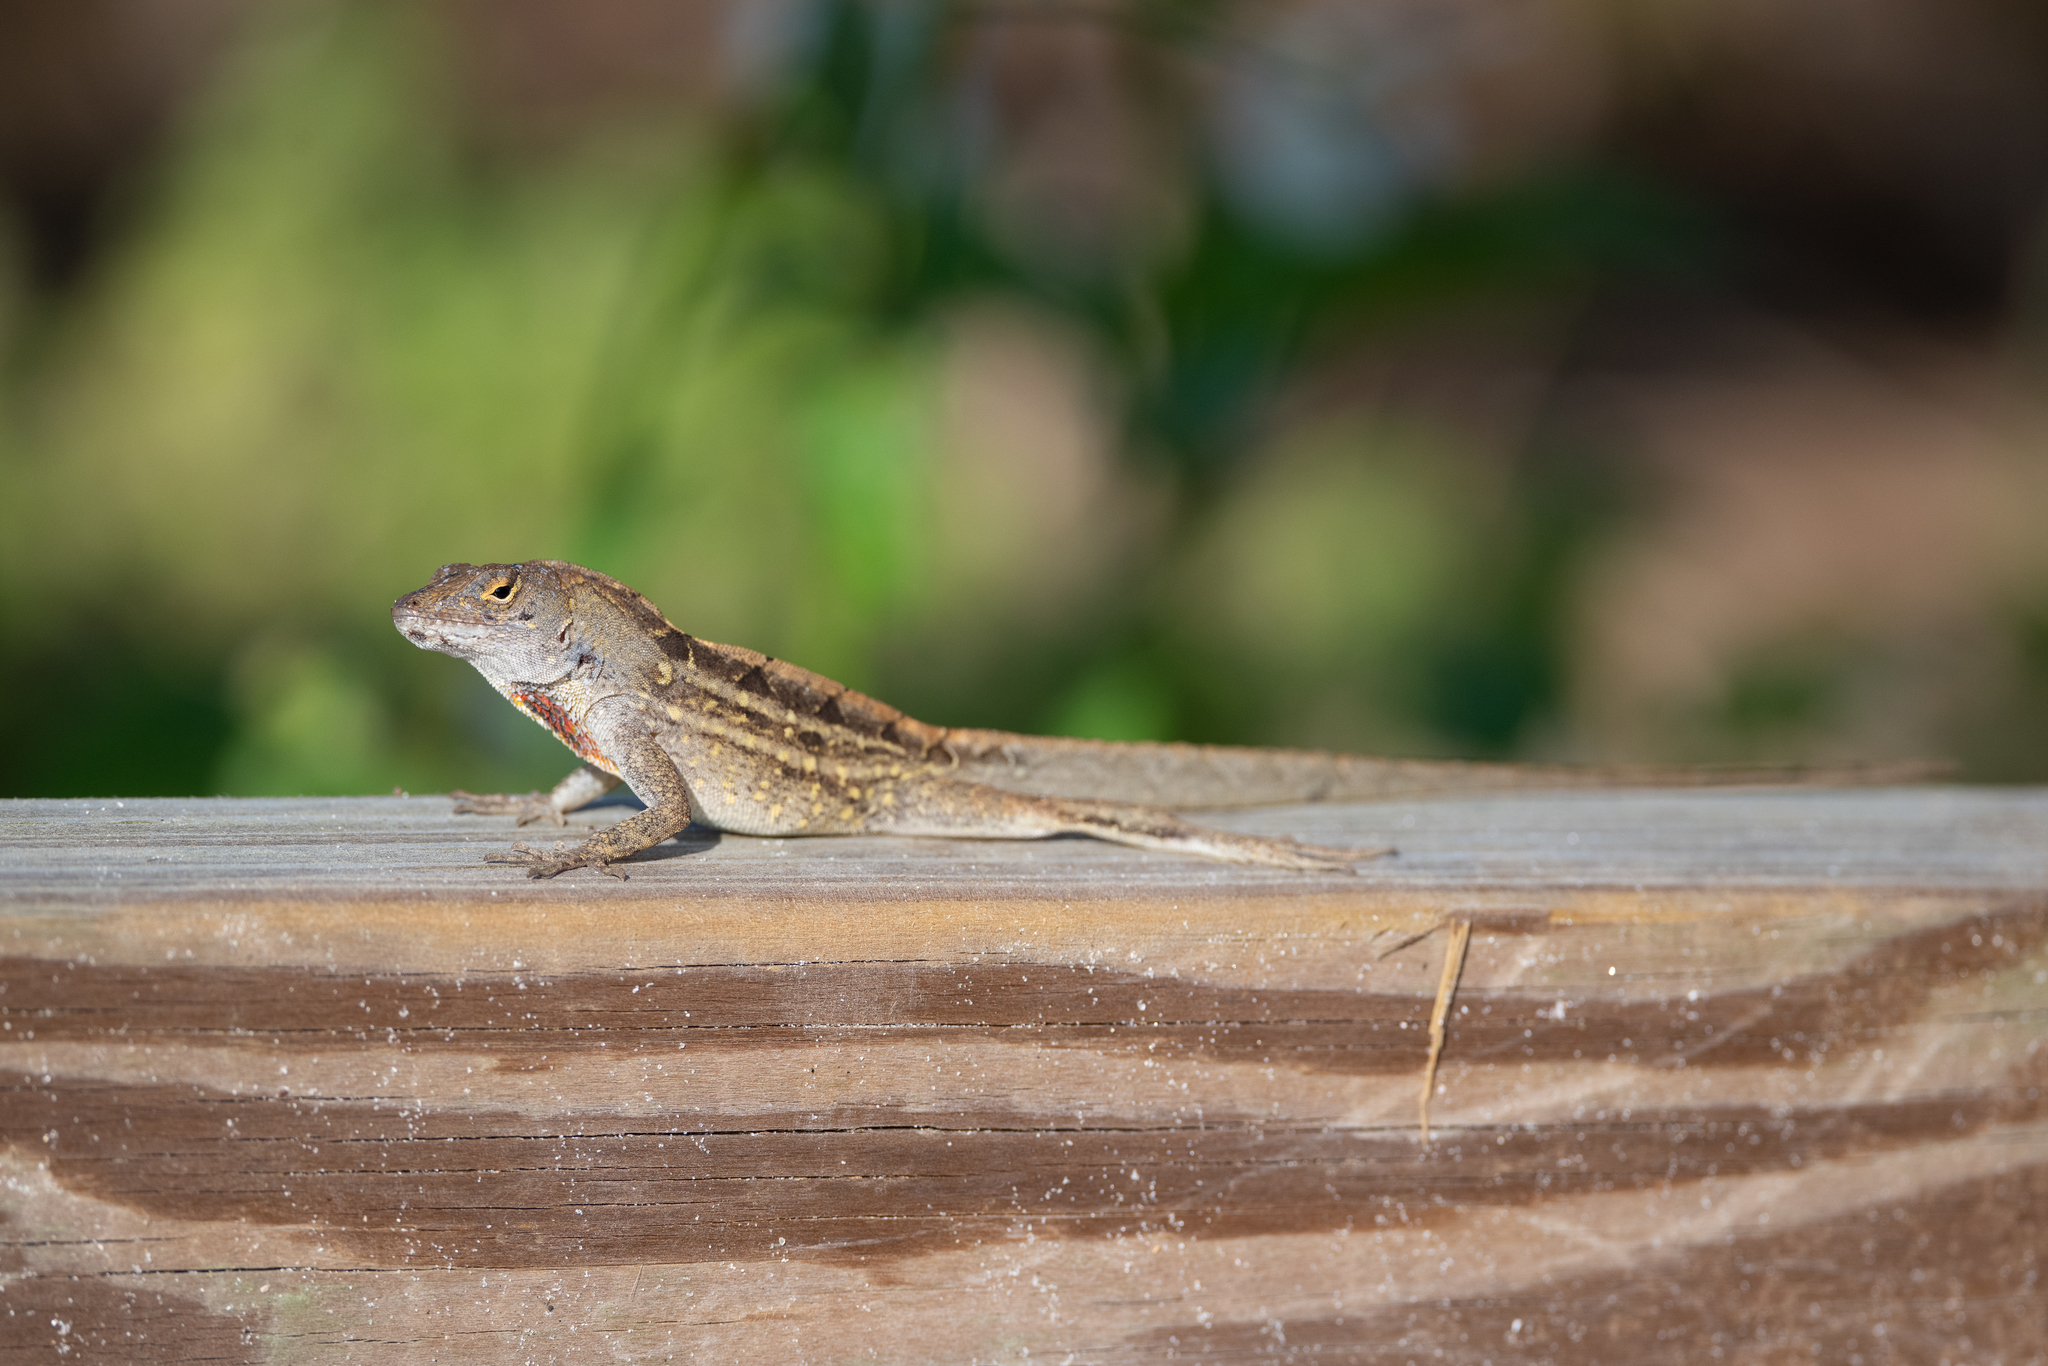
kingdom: Animalia
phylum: Chordata
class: Squamata
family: Dactyloidae
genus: Anolis
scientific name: Anolis sagrei
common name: Brown anole
